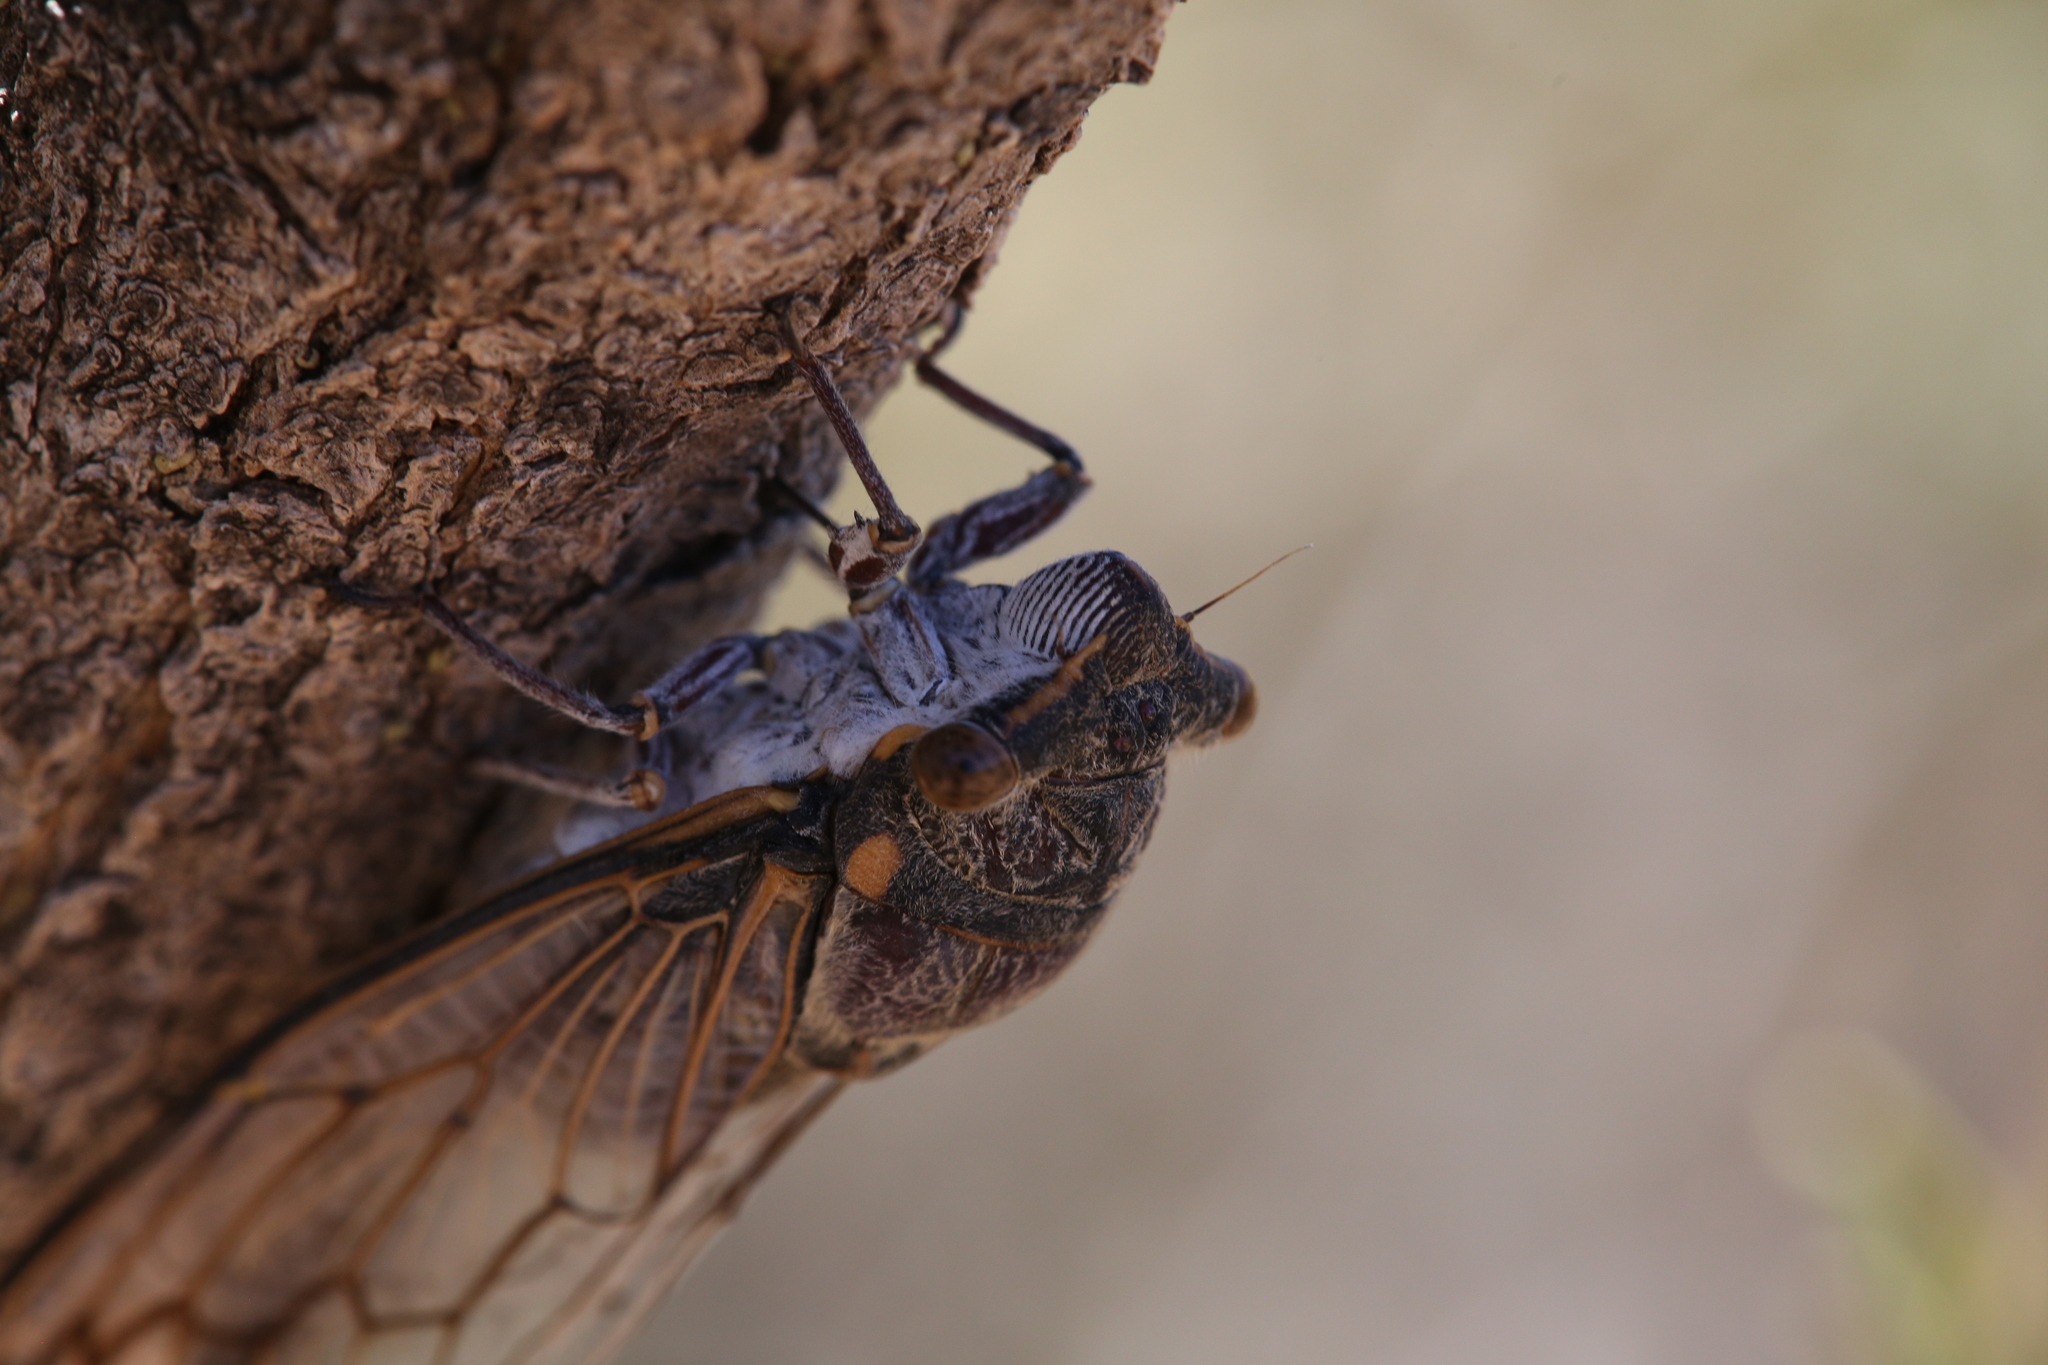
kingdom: Animalia
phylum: Arthropoda
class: Insecta
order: Hemiptera
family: Cicadidae
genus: Burbunga
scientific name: Burbunga hillieri
